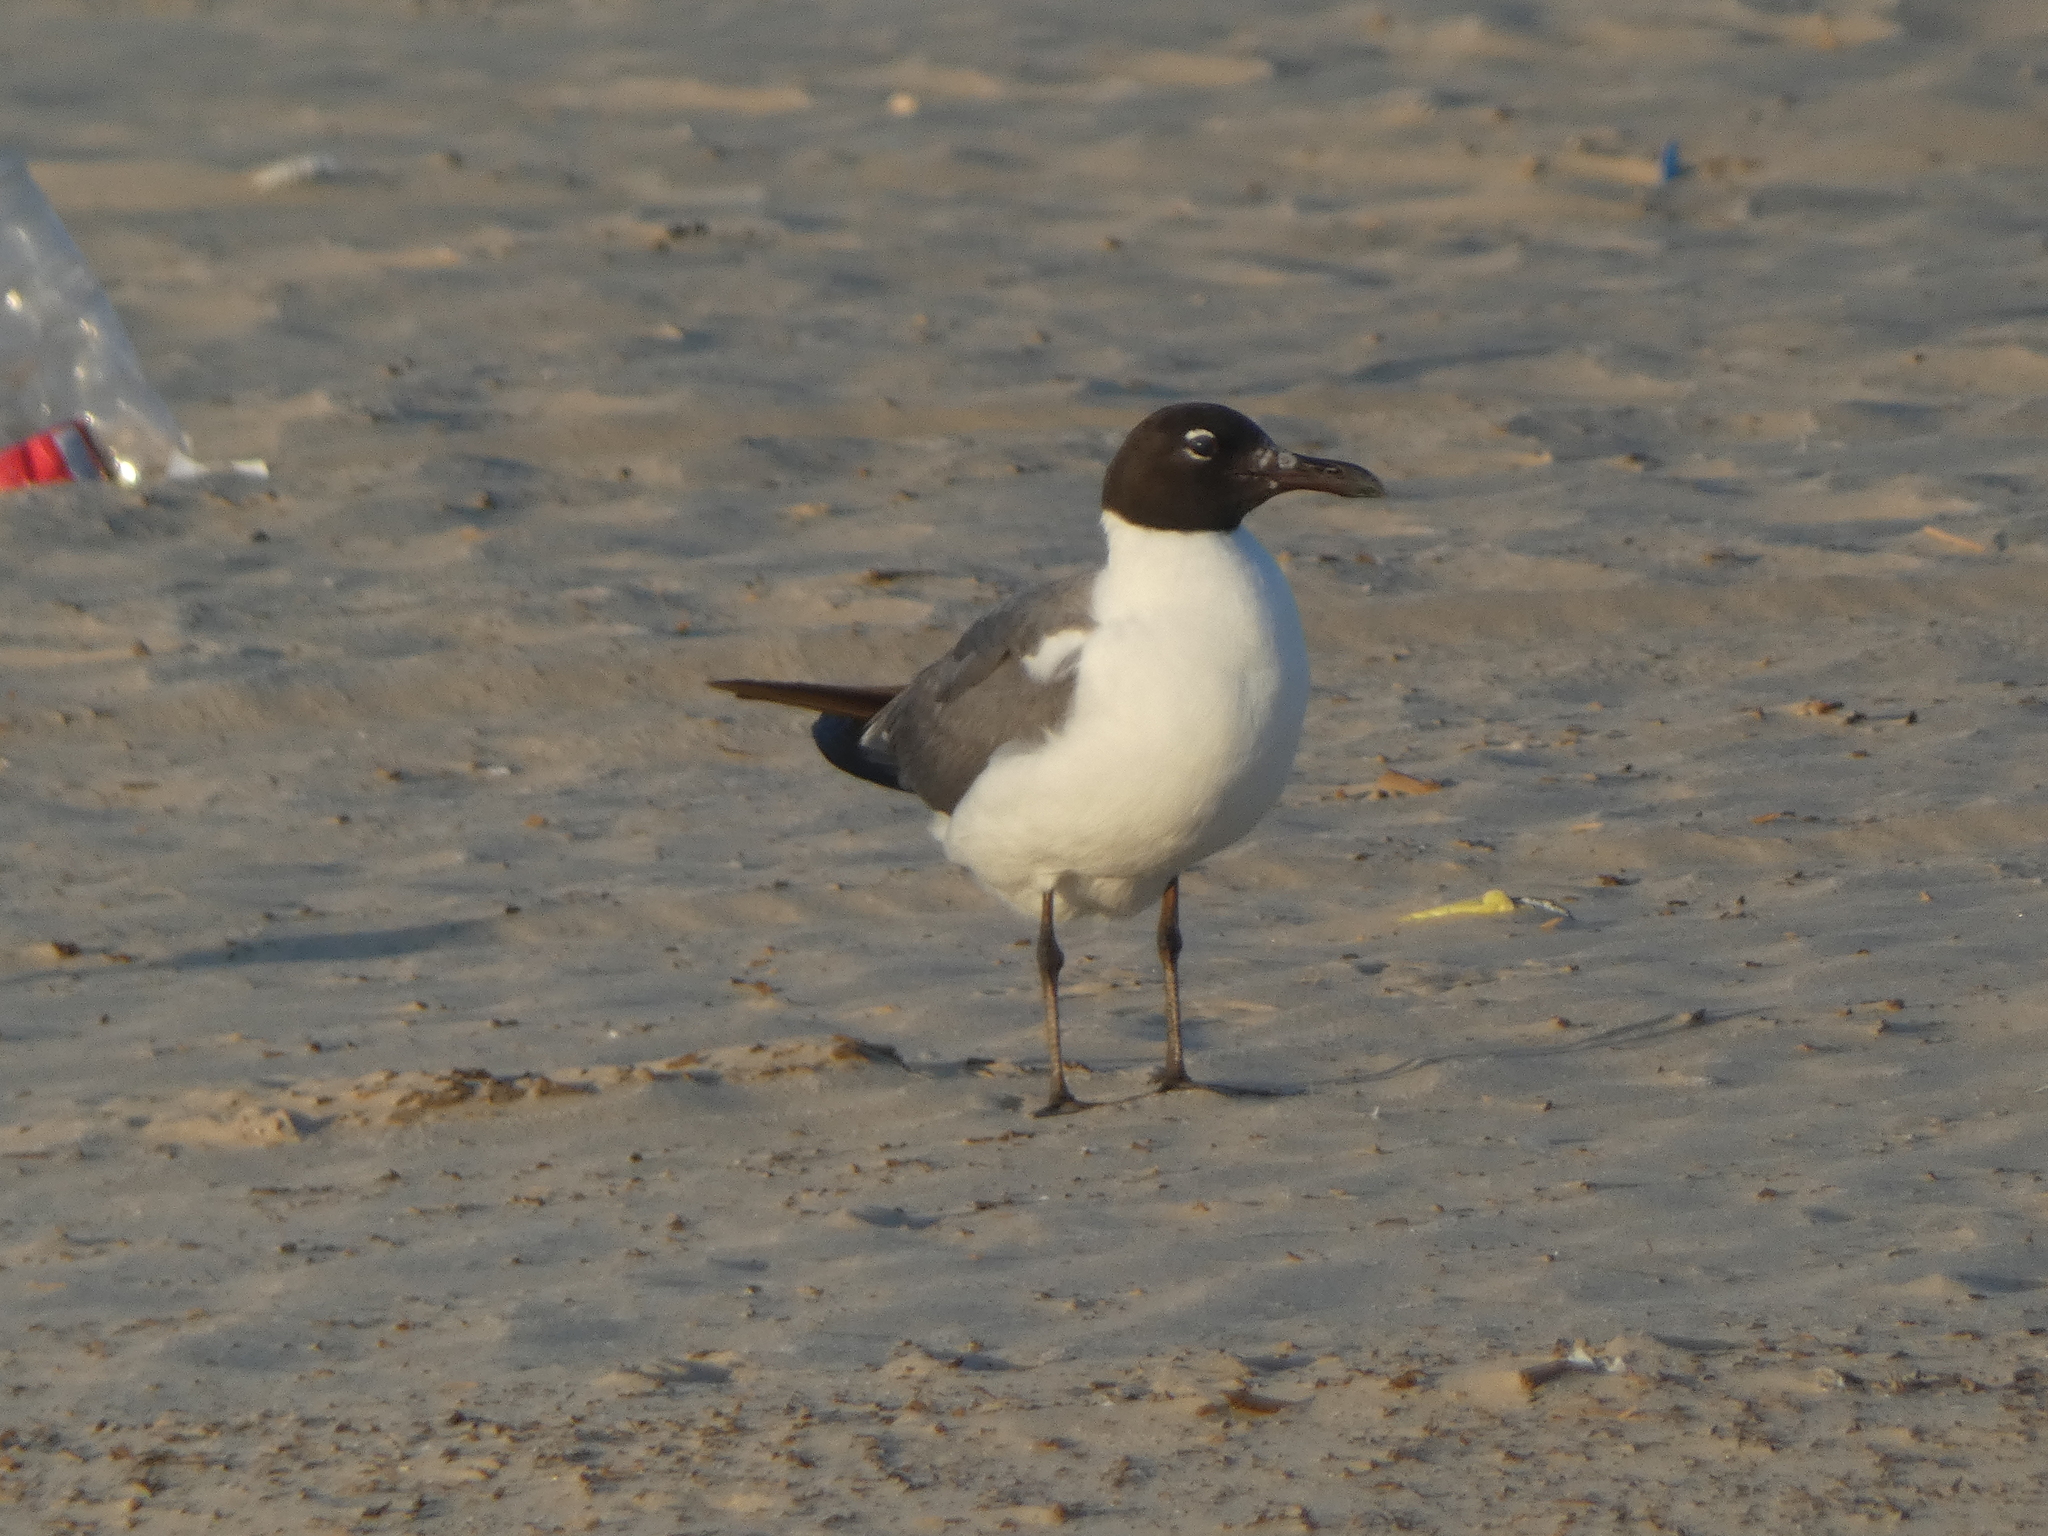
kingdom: Animalia
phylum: Chordata
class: Aves
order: Charadriiformes
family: Laridae
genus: Leucophaeus
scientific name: Leucophaeus atricilla
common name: Laughing gull
